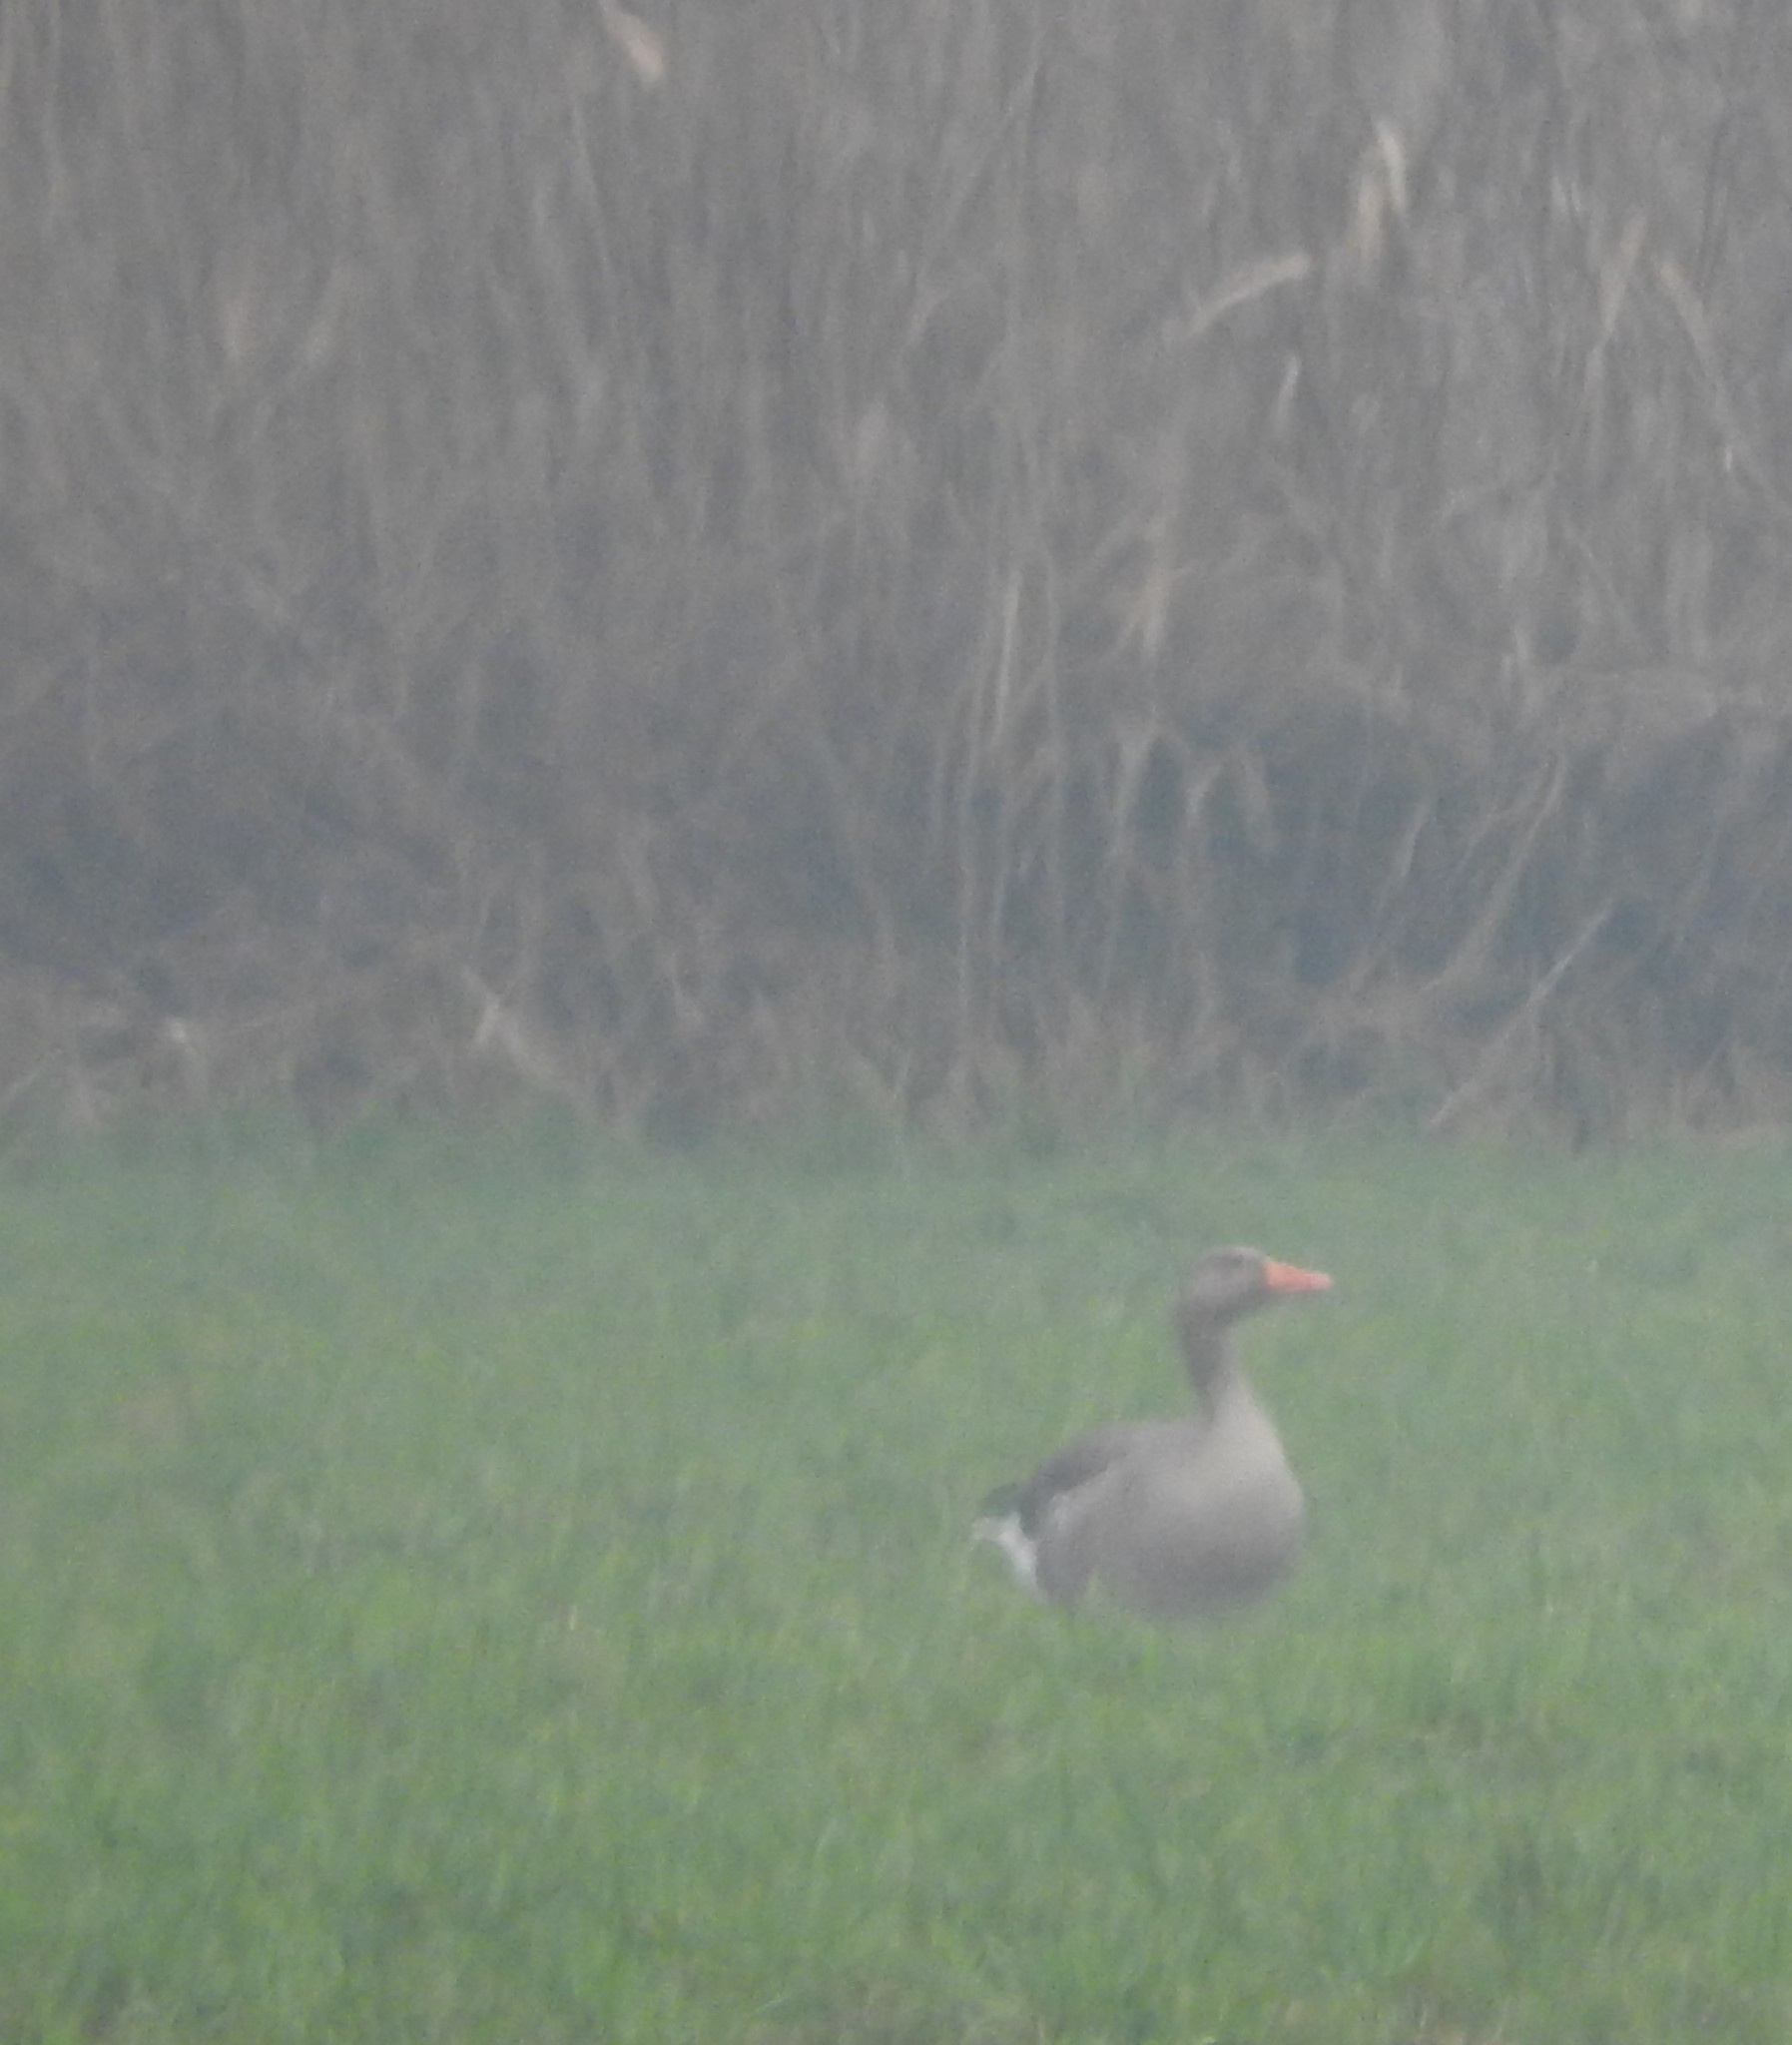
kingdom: Animalia
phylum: Chordata
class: Aves
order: Anseriformes
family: Anatidae
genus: Anser
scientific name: Anser anser
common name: Greylag goose
